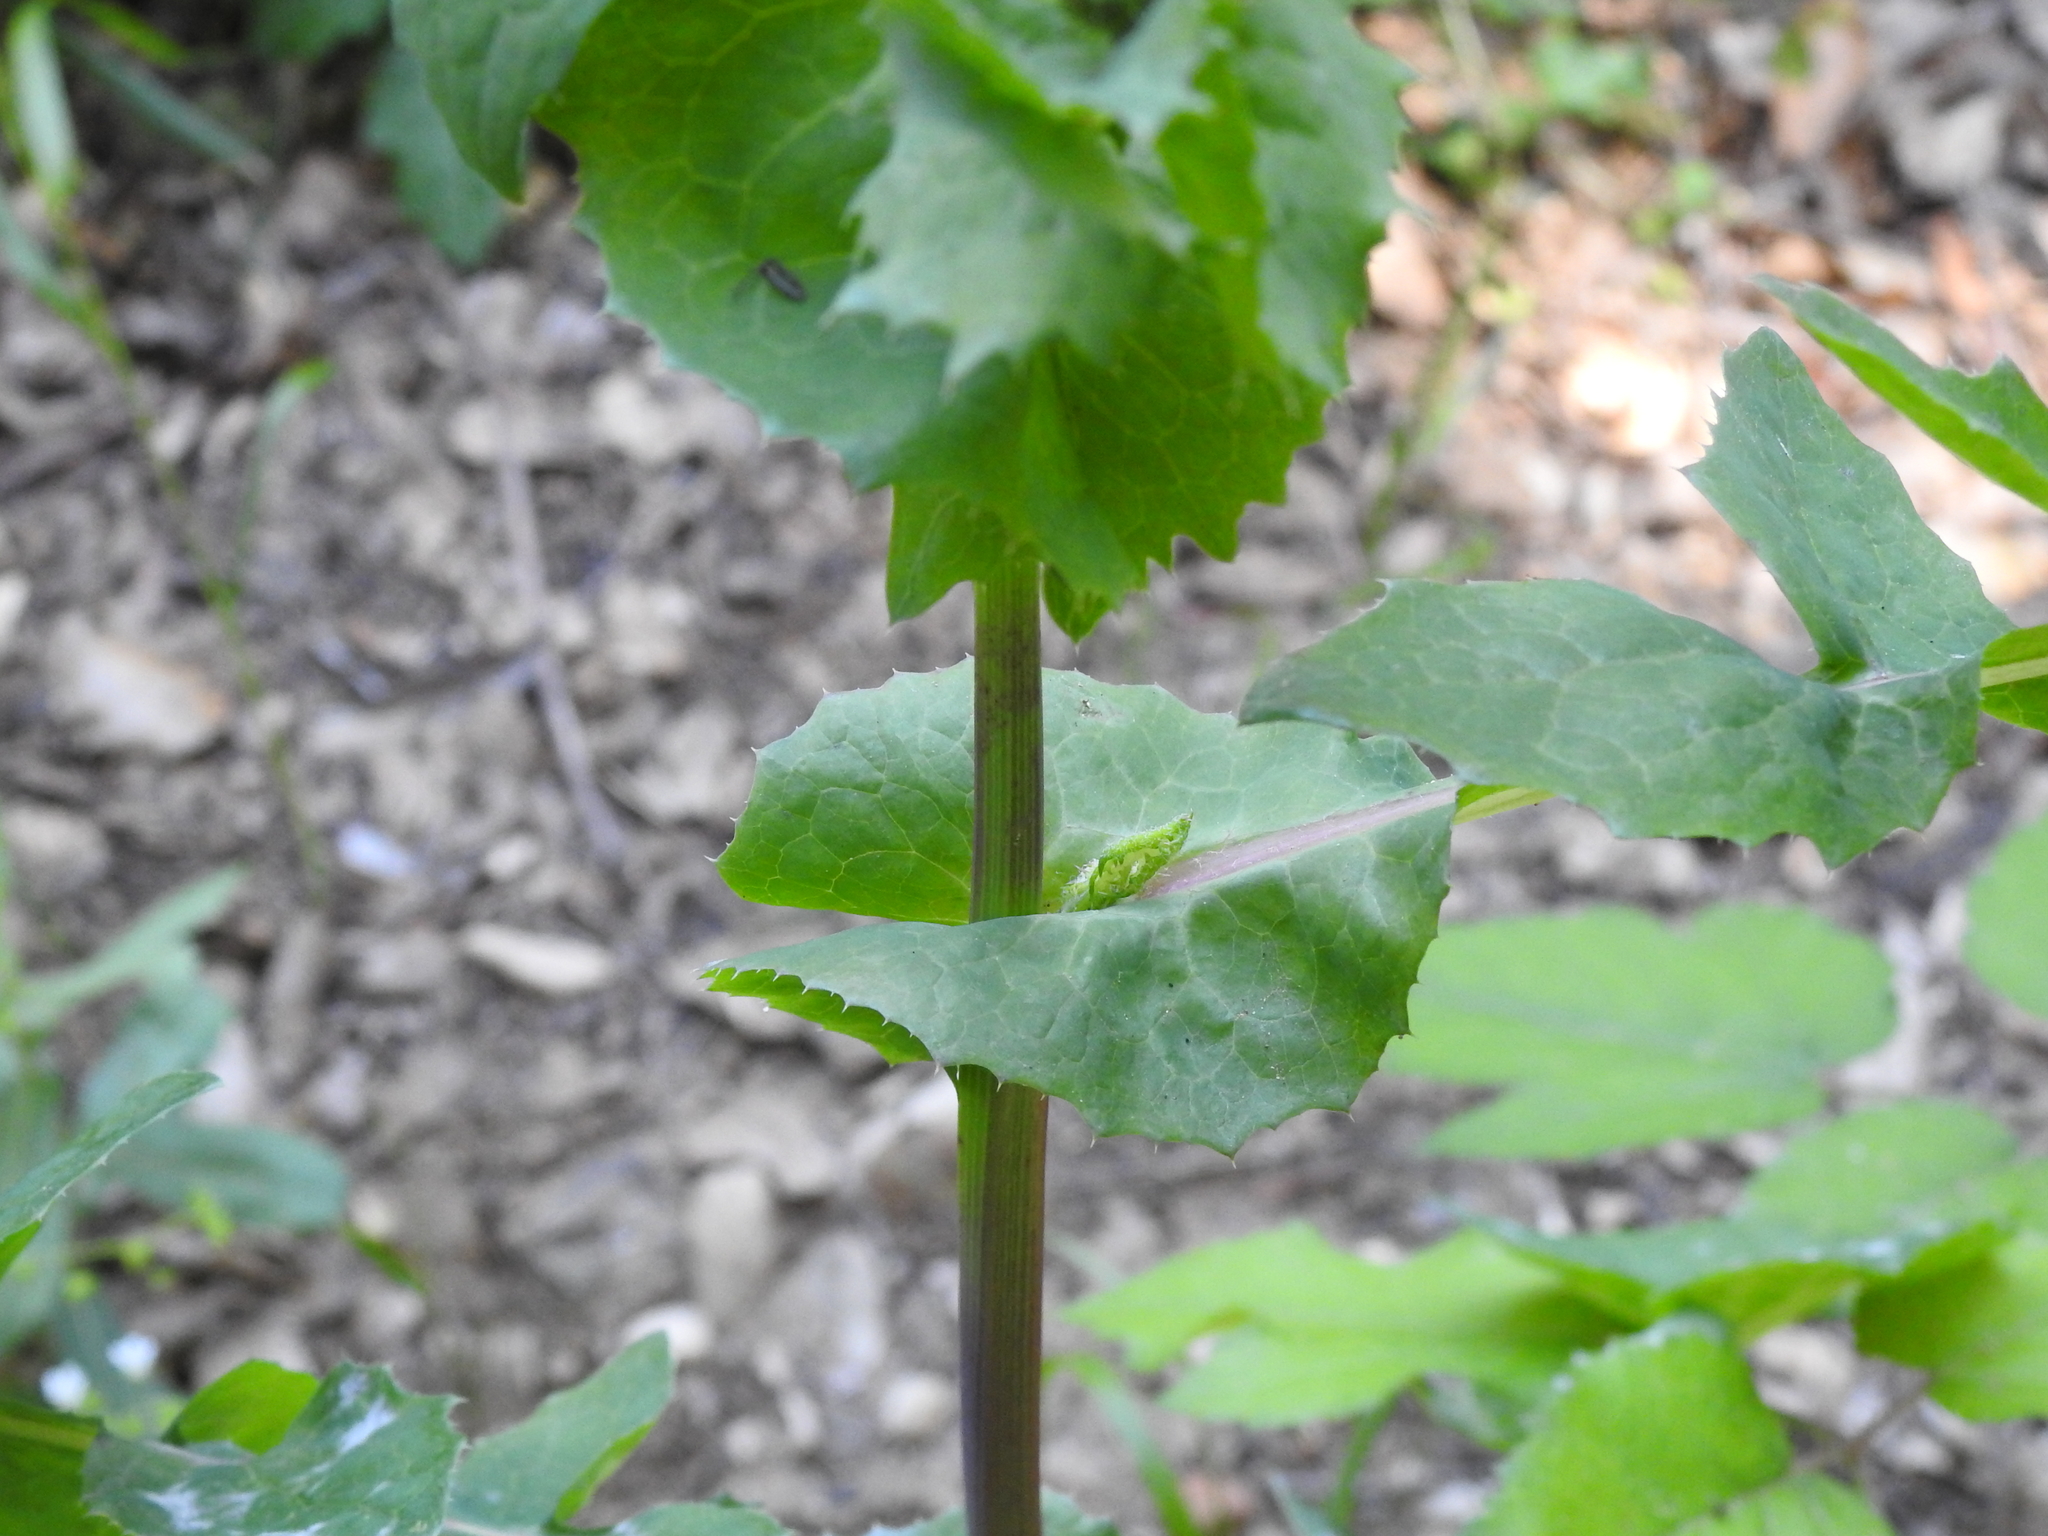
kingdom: Plantae
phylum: Tracheophyta
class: Magnoliopsida
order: Asterales
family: Asteraceae
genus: Sonchus
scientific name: Sonchus oleraceus
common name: Common sowthistle
